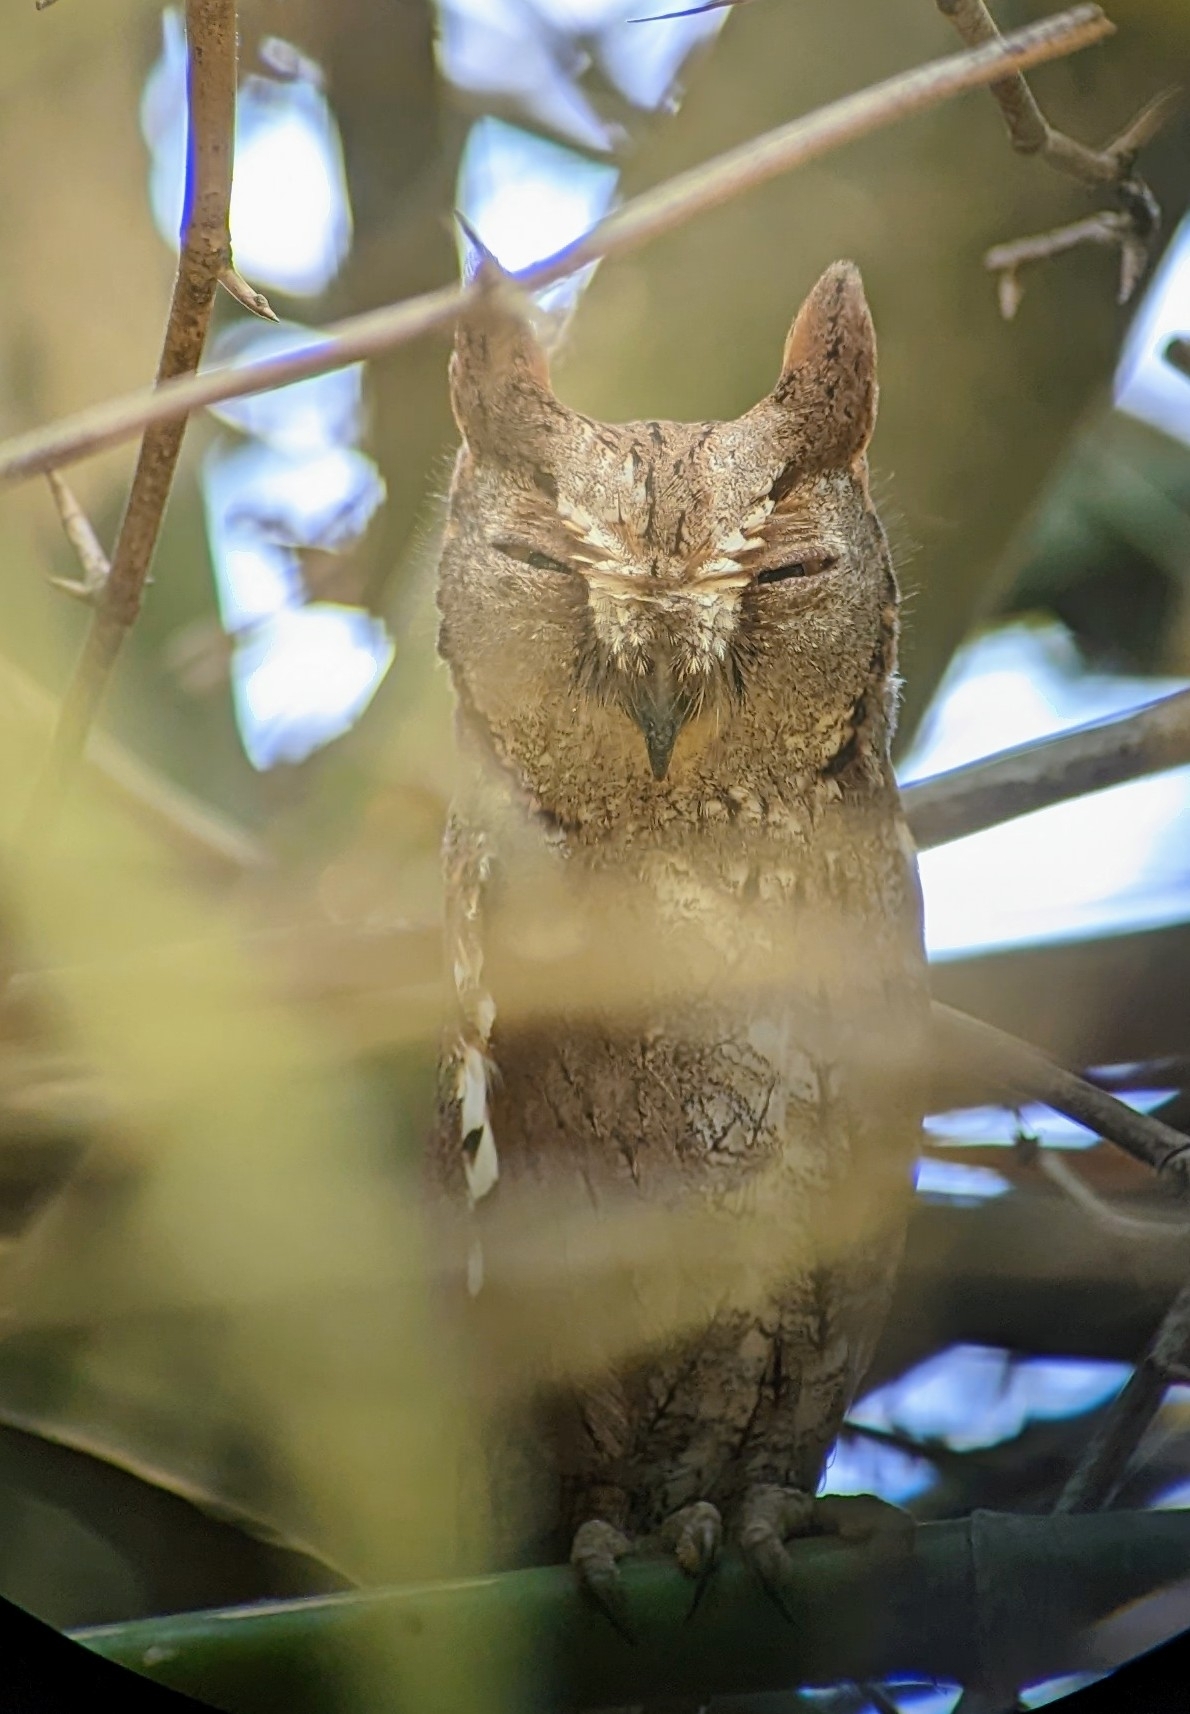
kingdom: Animalia
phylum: Chordata
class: Aves
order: Strigiformes
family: Strigidae
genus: Otus
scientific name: Otus sunia
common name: Oriental scops-owl
